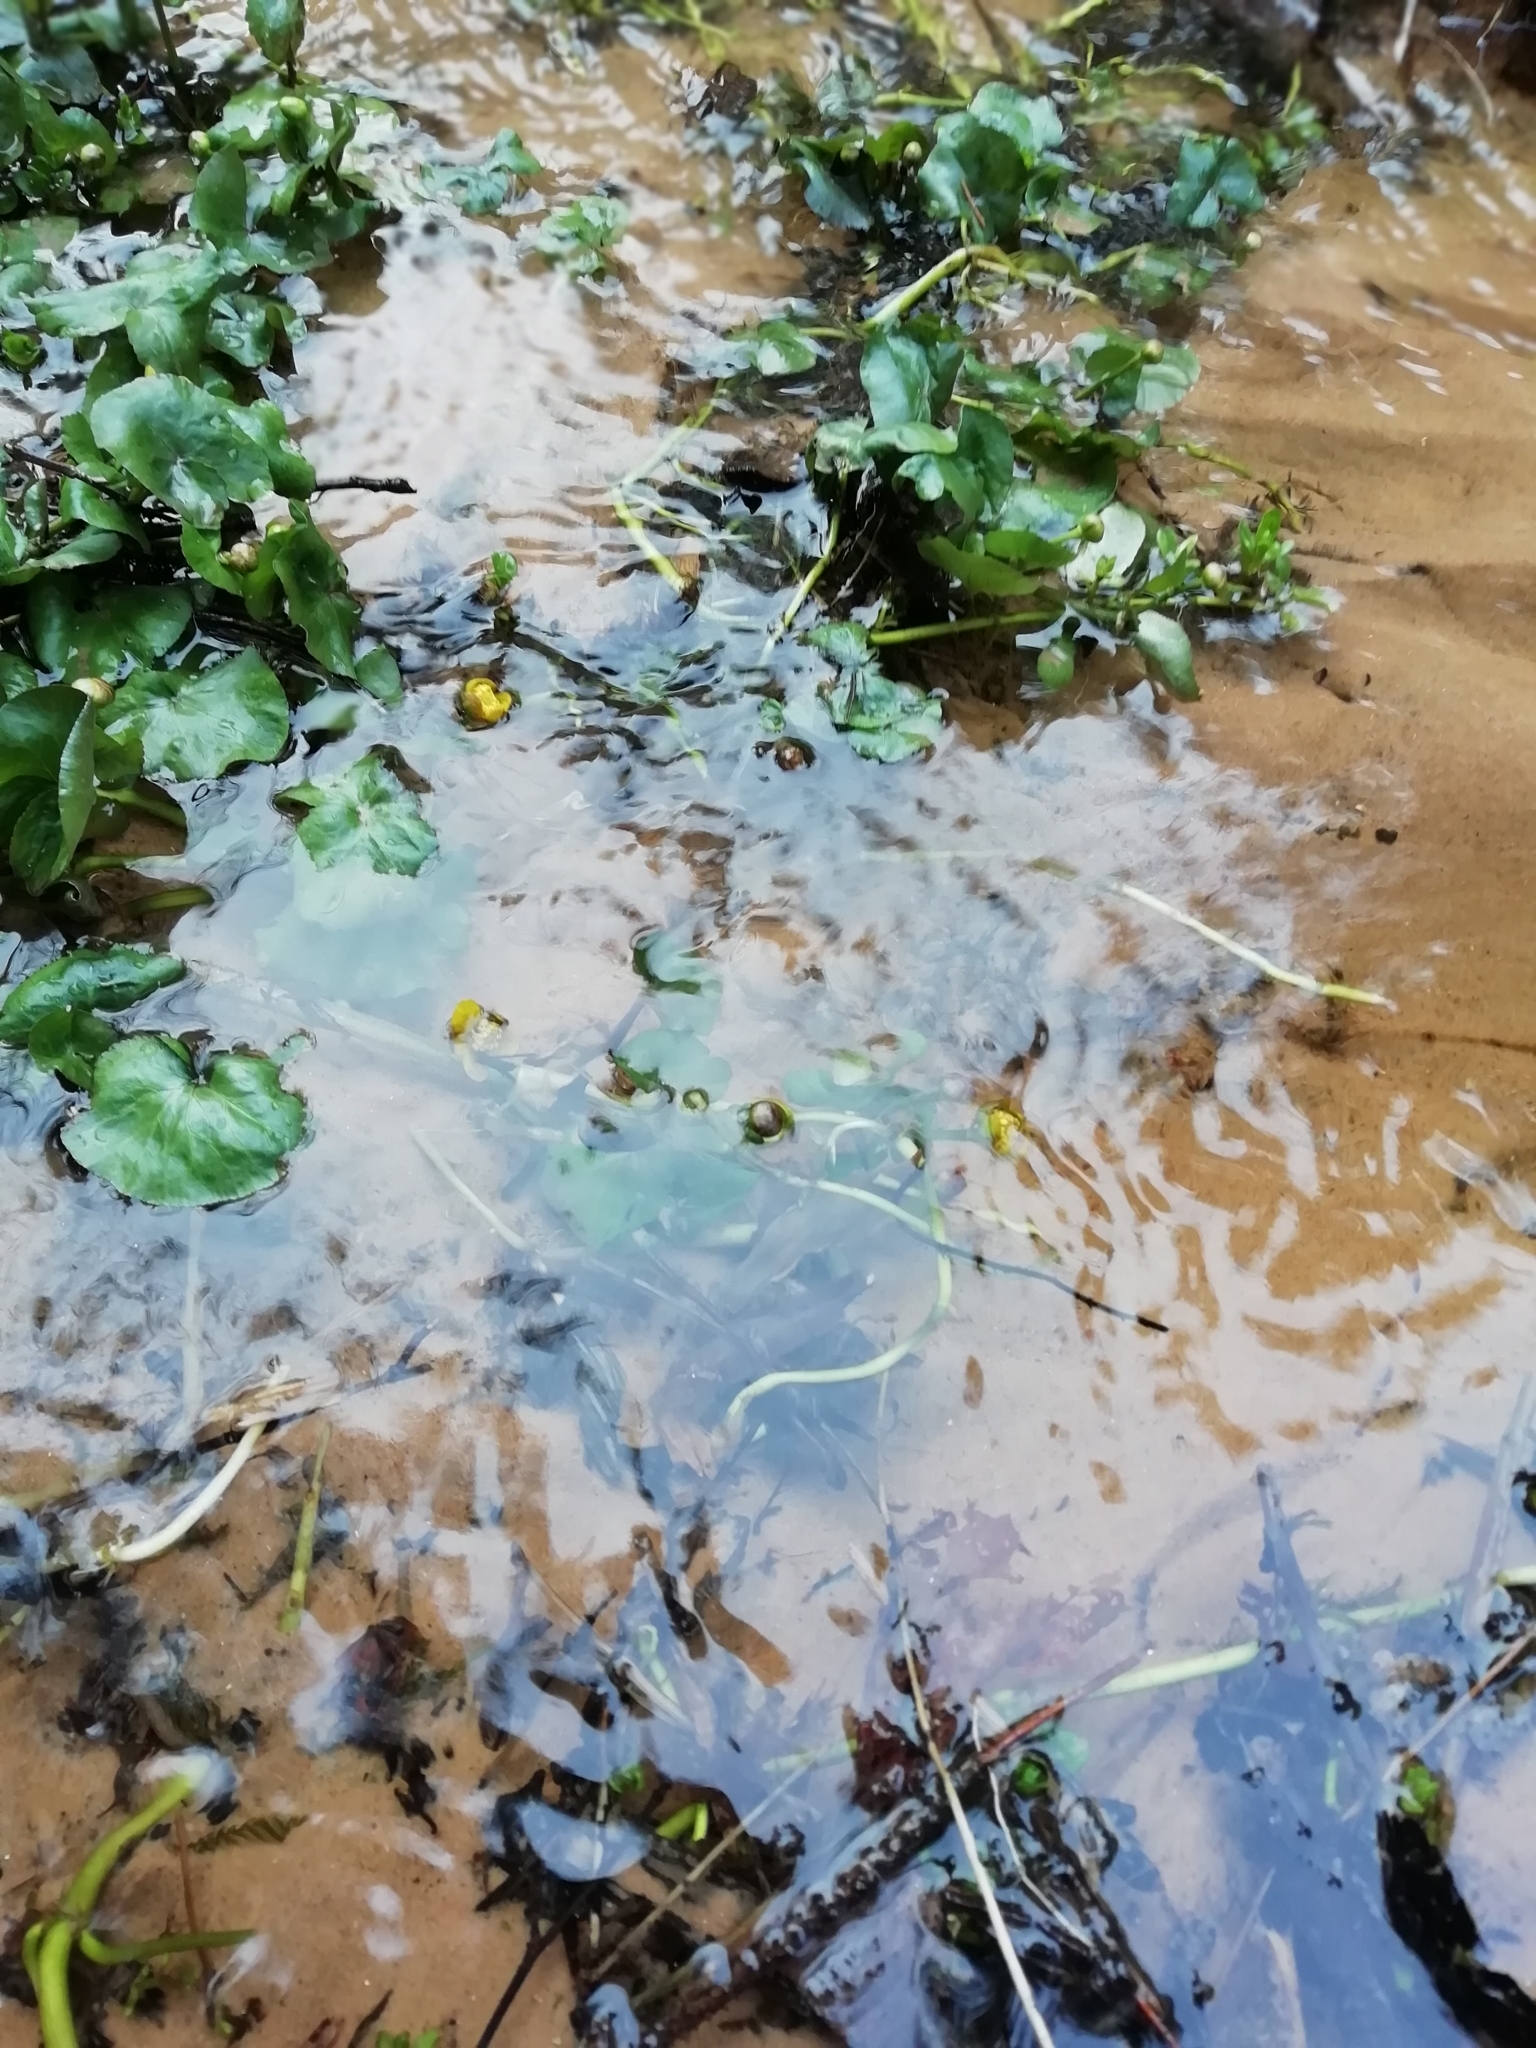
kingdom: Plantae
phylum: Tracheophyta
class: Magnoliopsida
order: Ranunculales
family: Ranunculaceae
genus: Caltha
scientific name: Caltha palustris
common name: Marsh marigold
